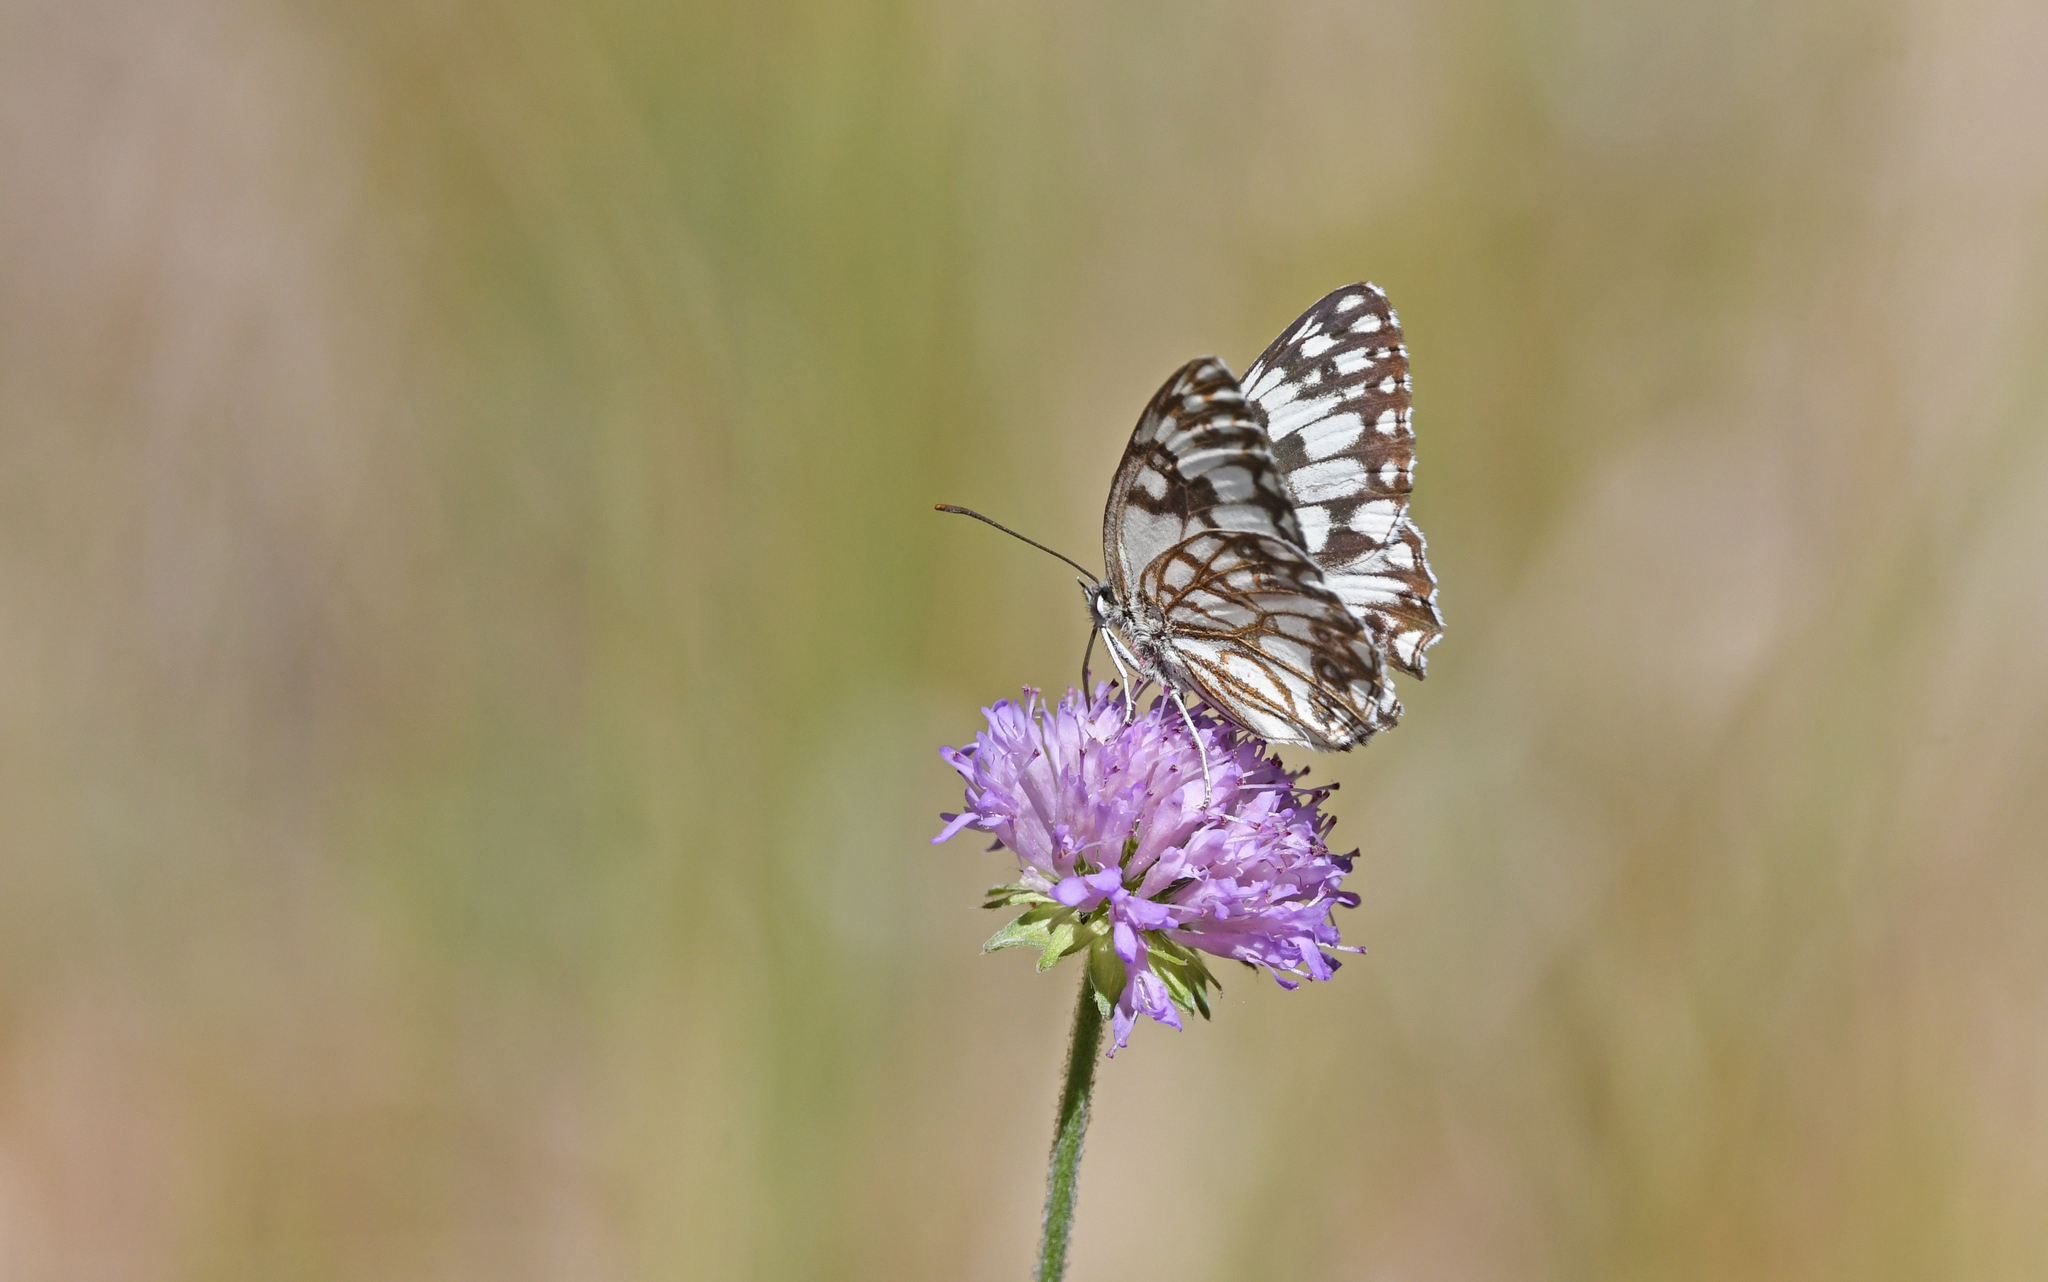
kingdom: Animalia
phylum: Arthropoda
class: Insecta
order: Lepidoptera
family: Nymphalidae
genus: Melanargia
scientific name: Melanargia occitanica
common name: Western marbled white
